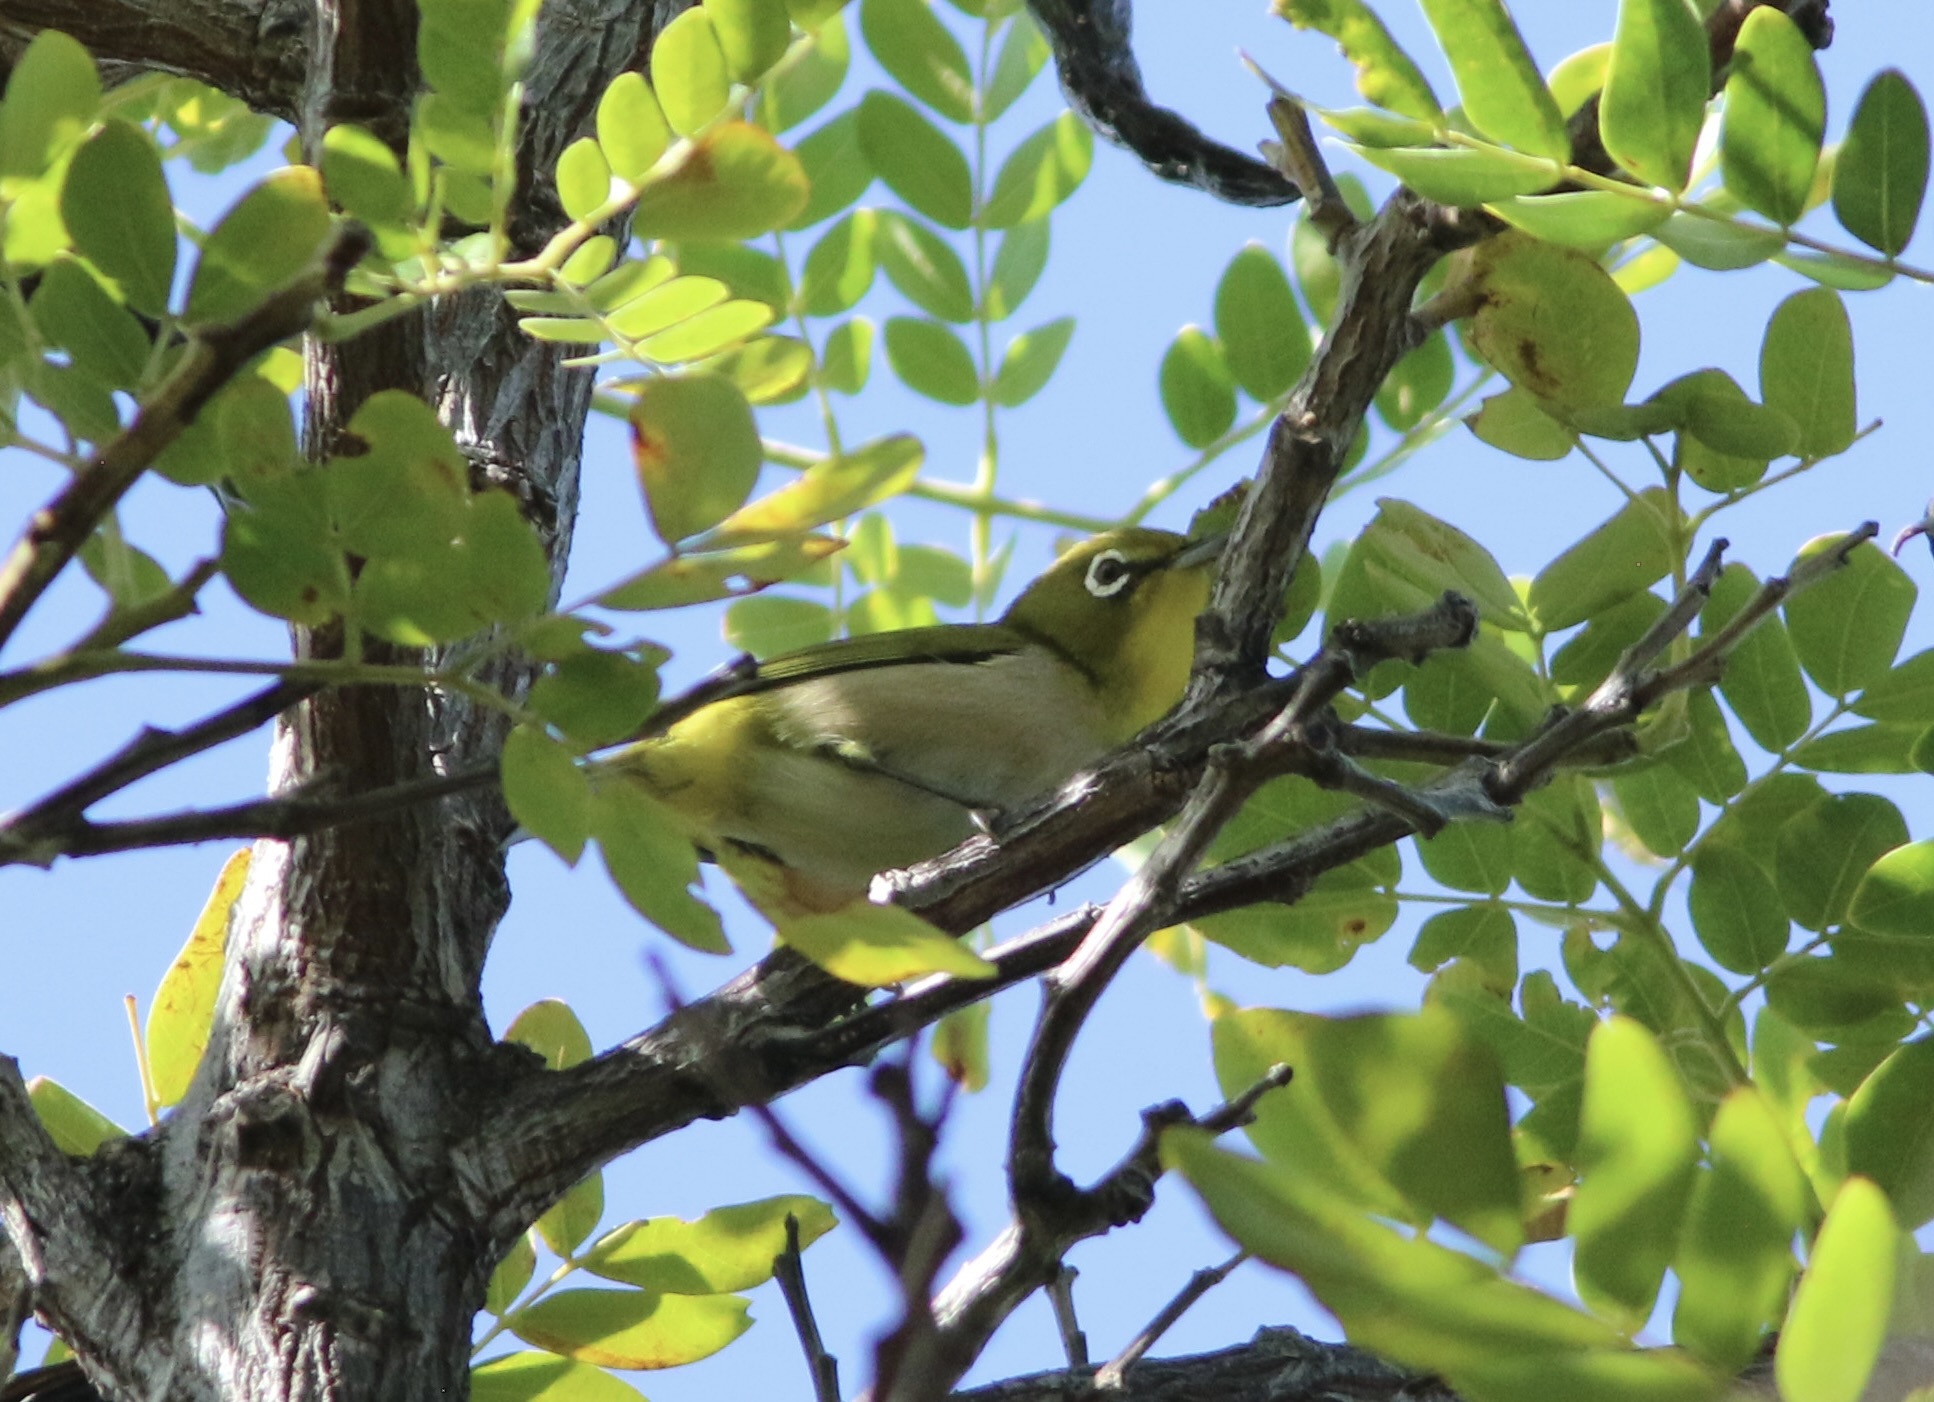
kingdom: Animalia
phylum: Chordata
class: Aves
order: Passeriformes
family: Zosteropidae
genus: Zosterops
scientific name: Zosterops japonicus
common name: Japanese white-eye
